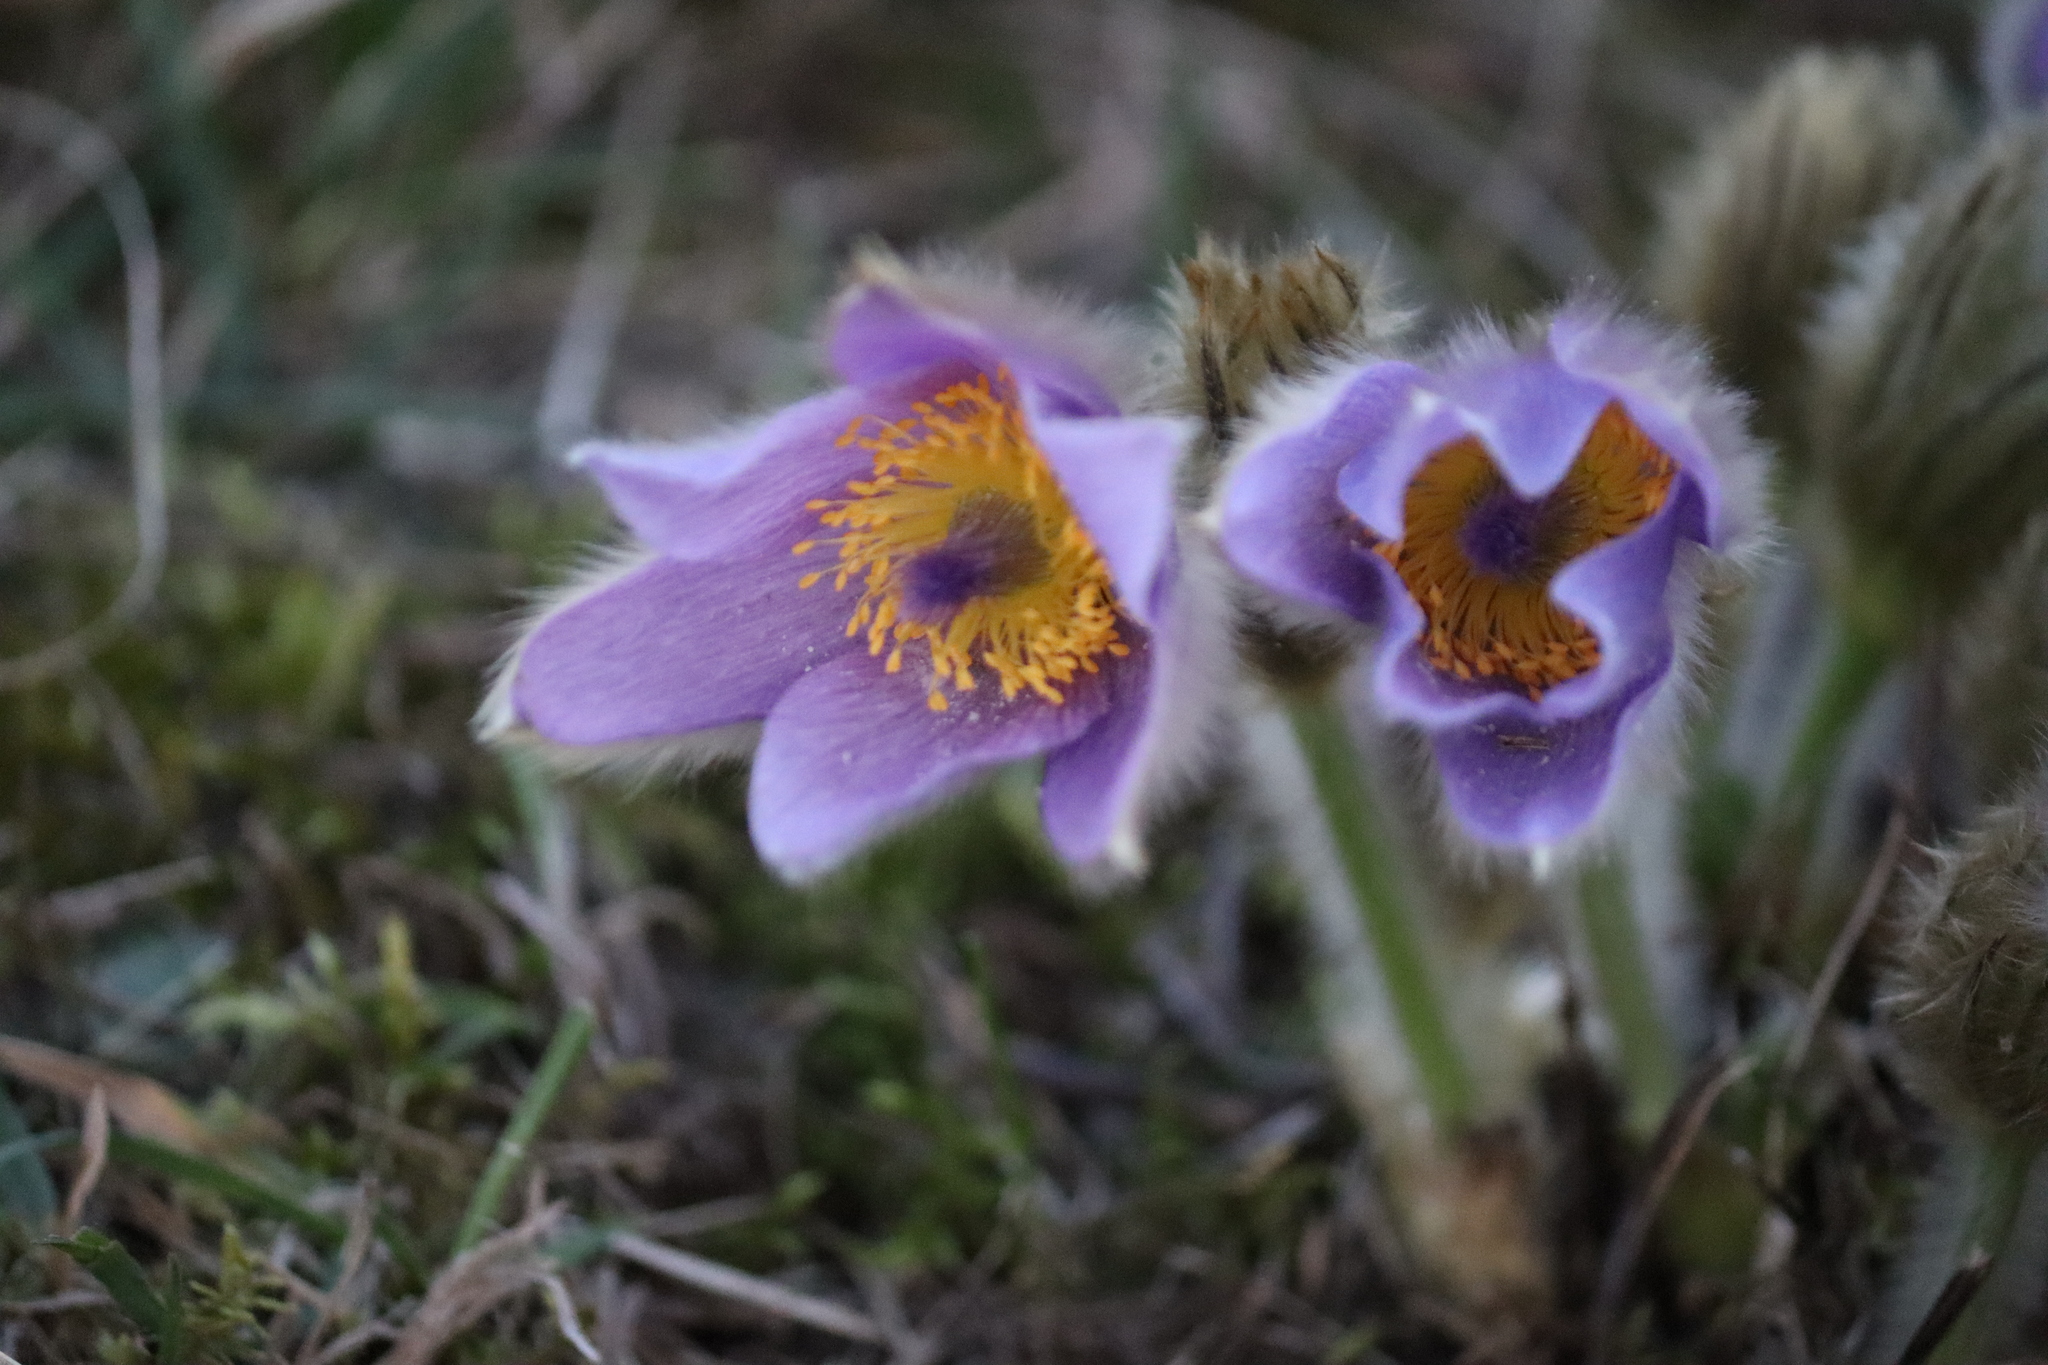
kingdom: Plantae
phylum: Tracheophyta
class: Magnoliopsida
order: Ranunculales
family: Ranunculaceae
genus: Pulsatilla
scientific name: Pulsatilla grandis
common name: Greater pasque flower
